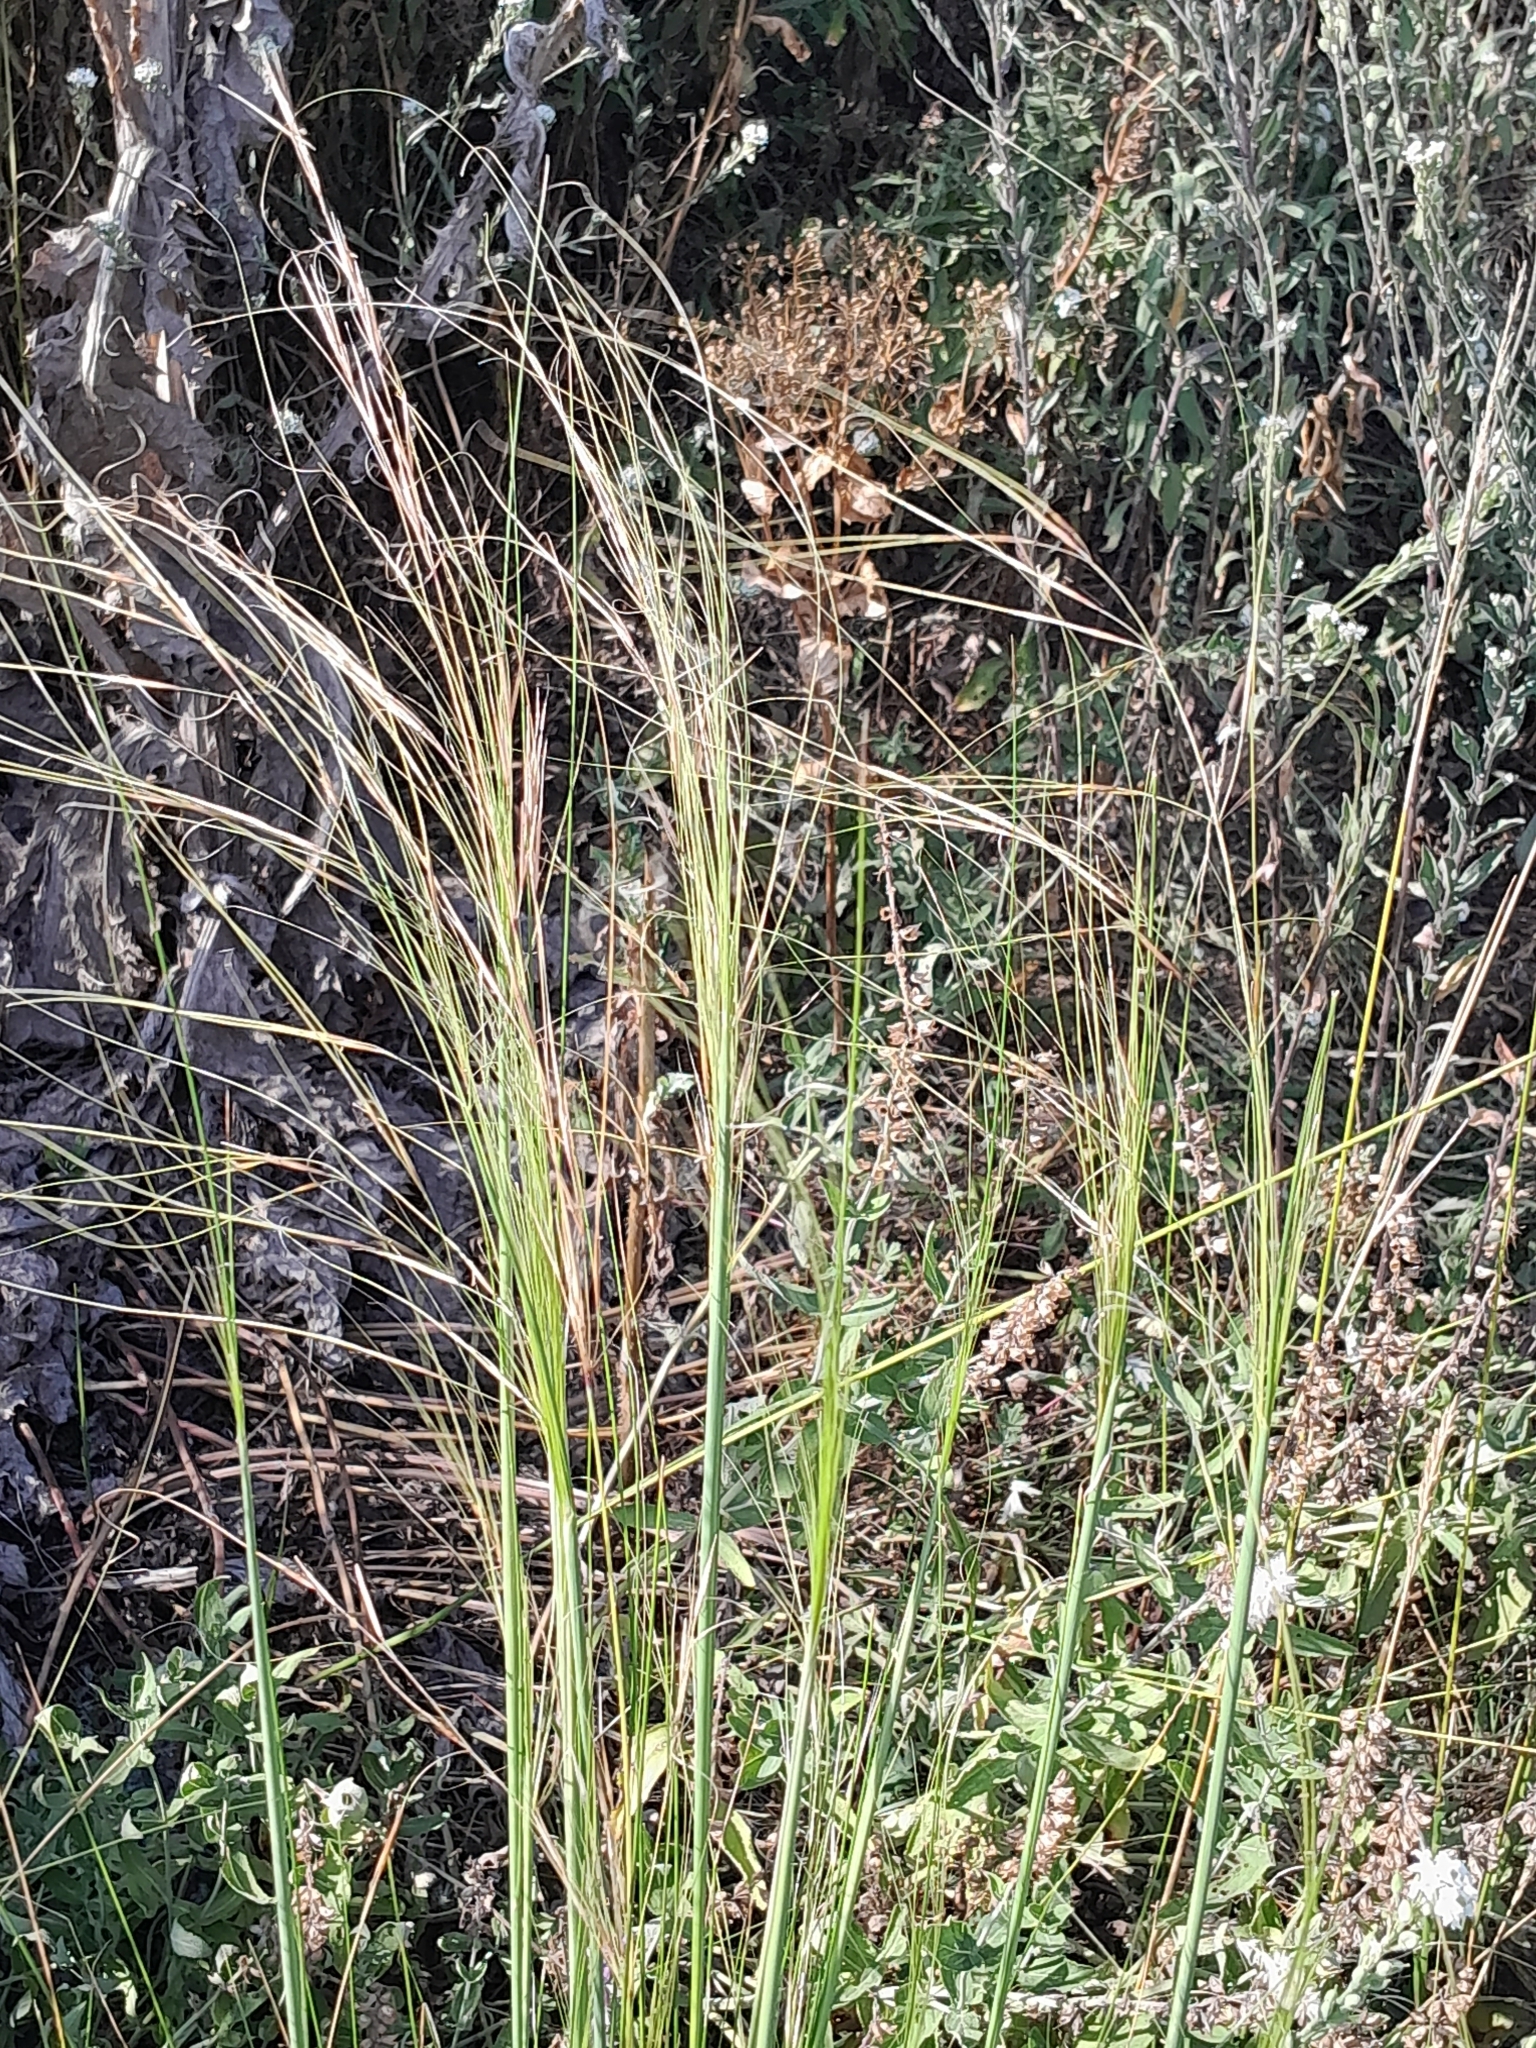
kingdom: Plantae
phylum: Tracheophyta
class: Liliopsida
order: Poales
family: Poaceae
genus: Stipa
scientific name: Stipa capillata
